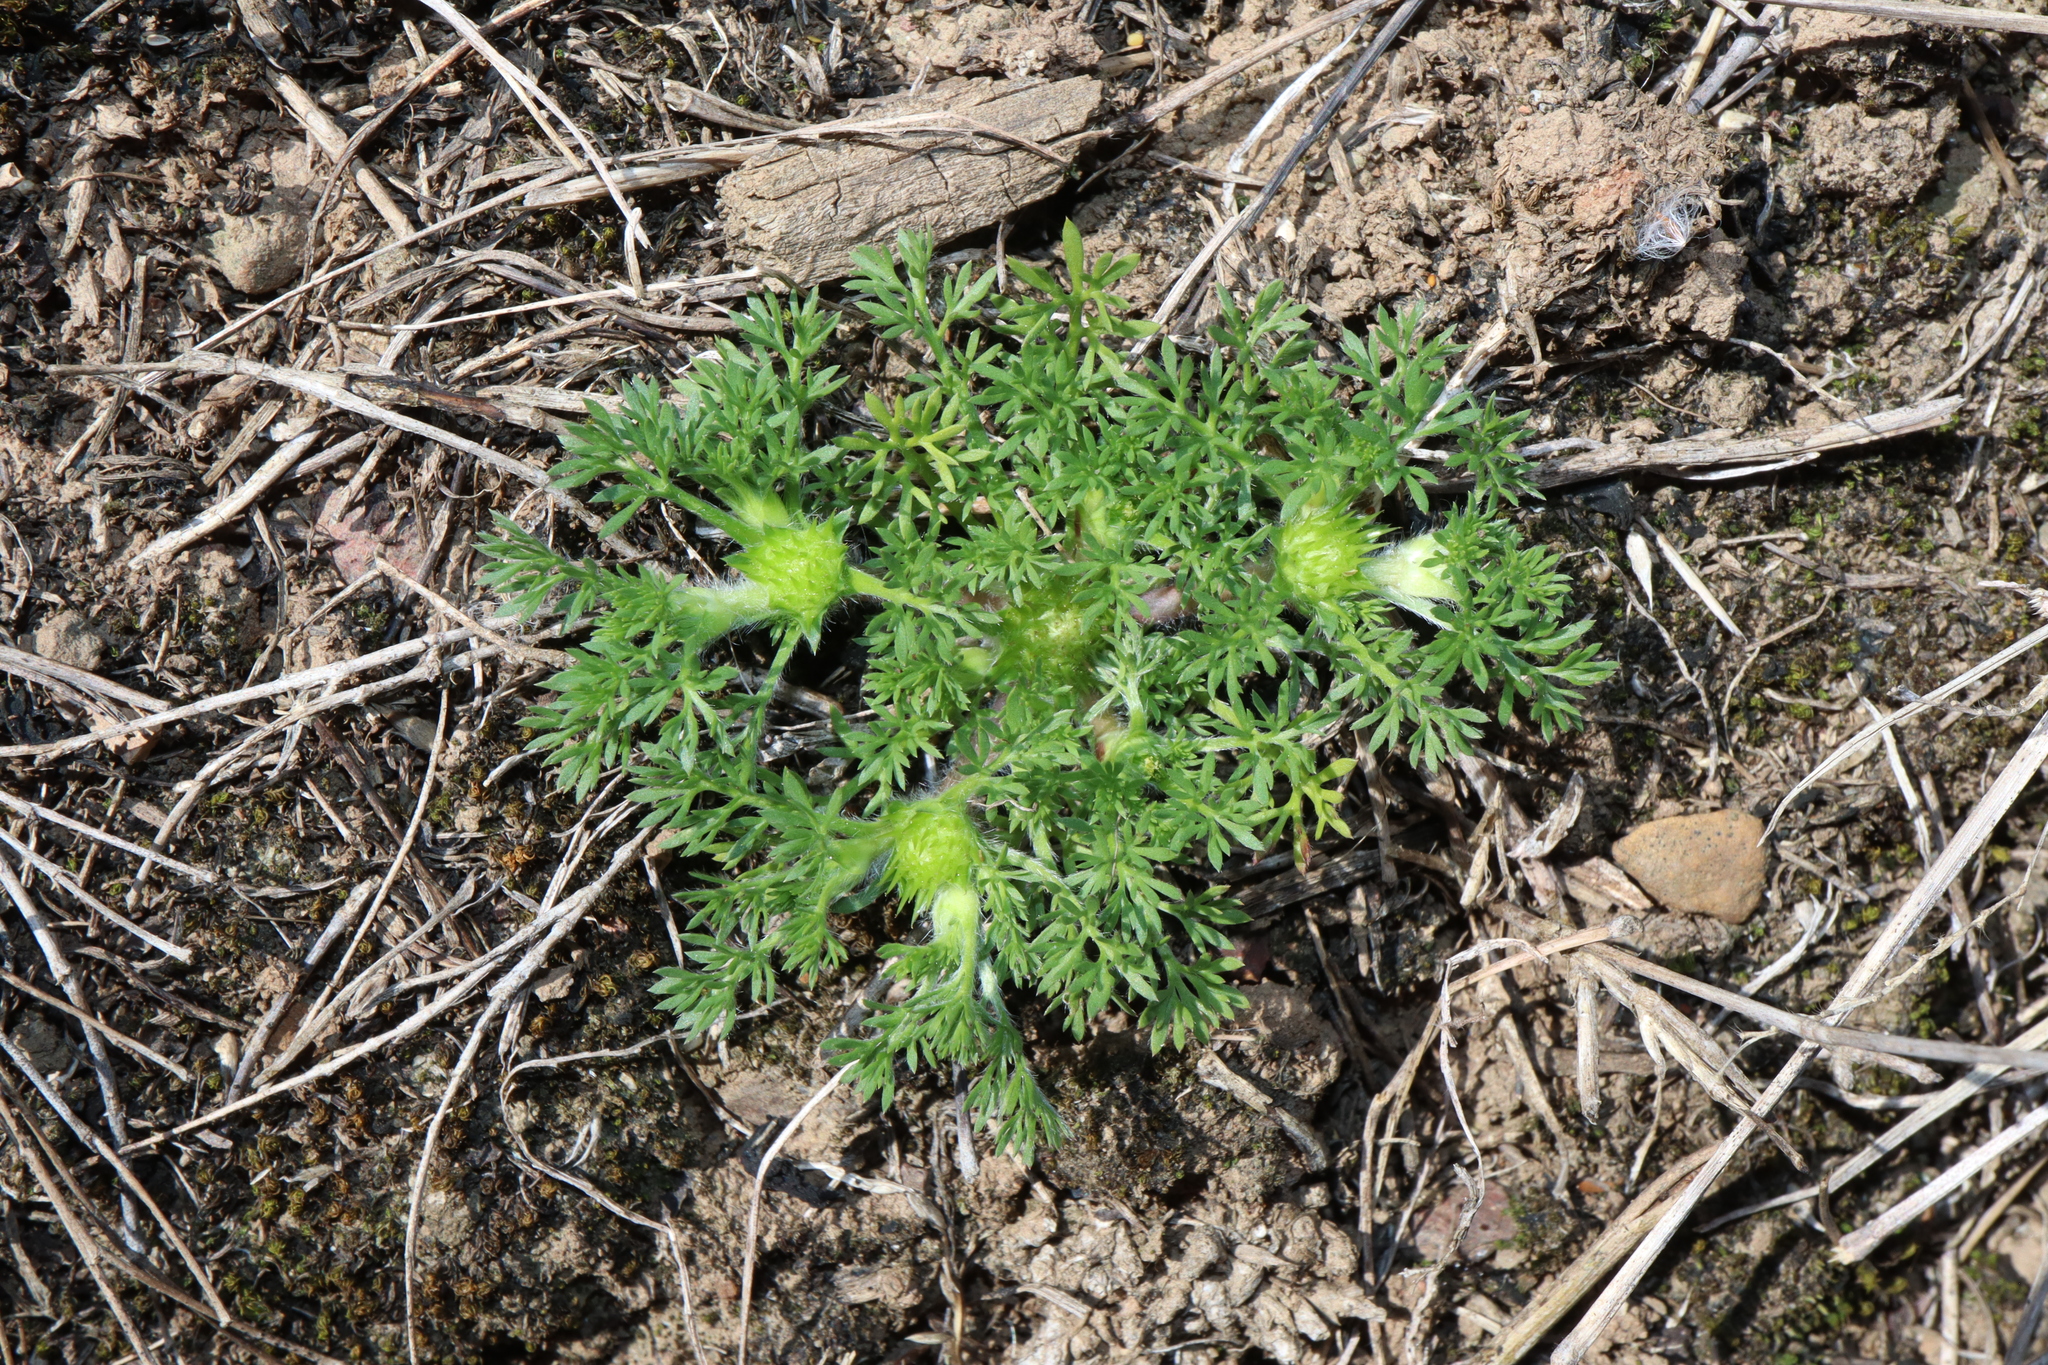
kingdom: Plantae
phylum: Tracheophyta
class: Magnoliopsida
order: Asterales
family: Asteraceae
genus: Soliva
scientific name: Soliva sessilis
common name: Field burrweed
